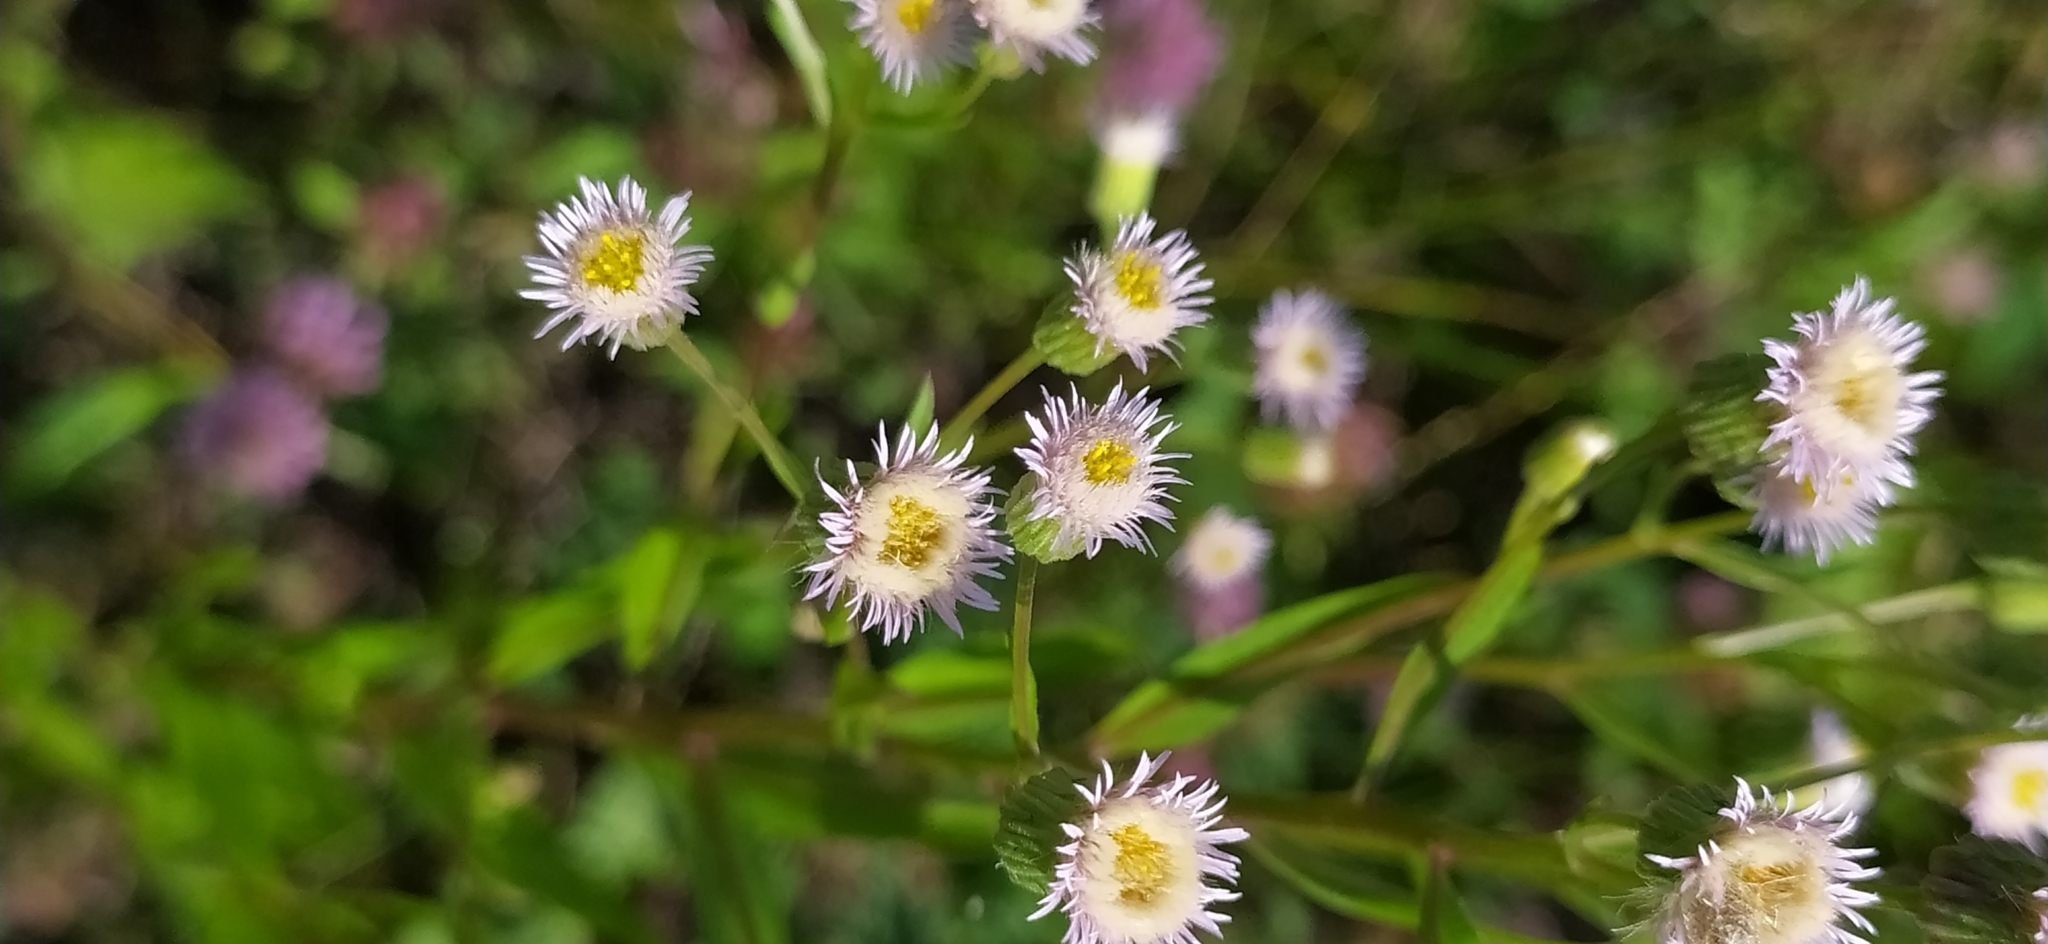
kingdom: Plantae
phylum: Tracheophyta
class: Magnoliopsida
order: Asterales
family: Asteraceae
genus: Erigeron
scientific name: Erigeron acris
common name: Blue fleabane
